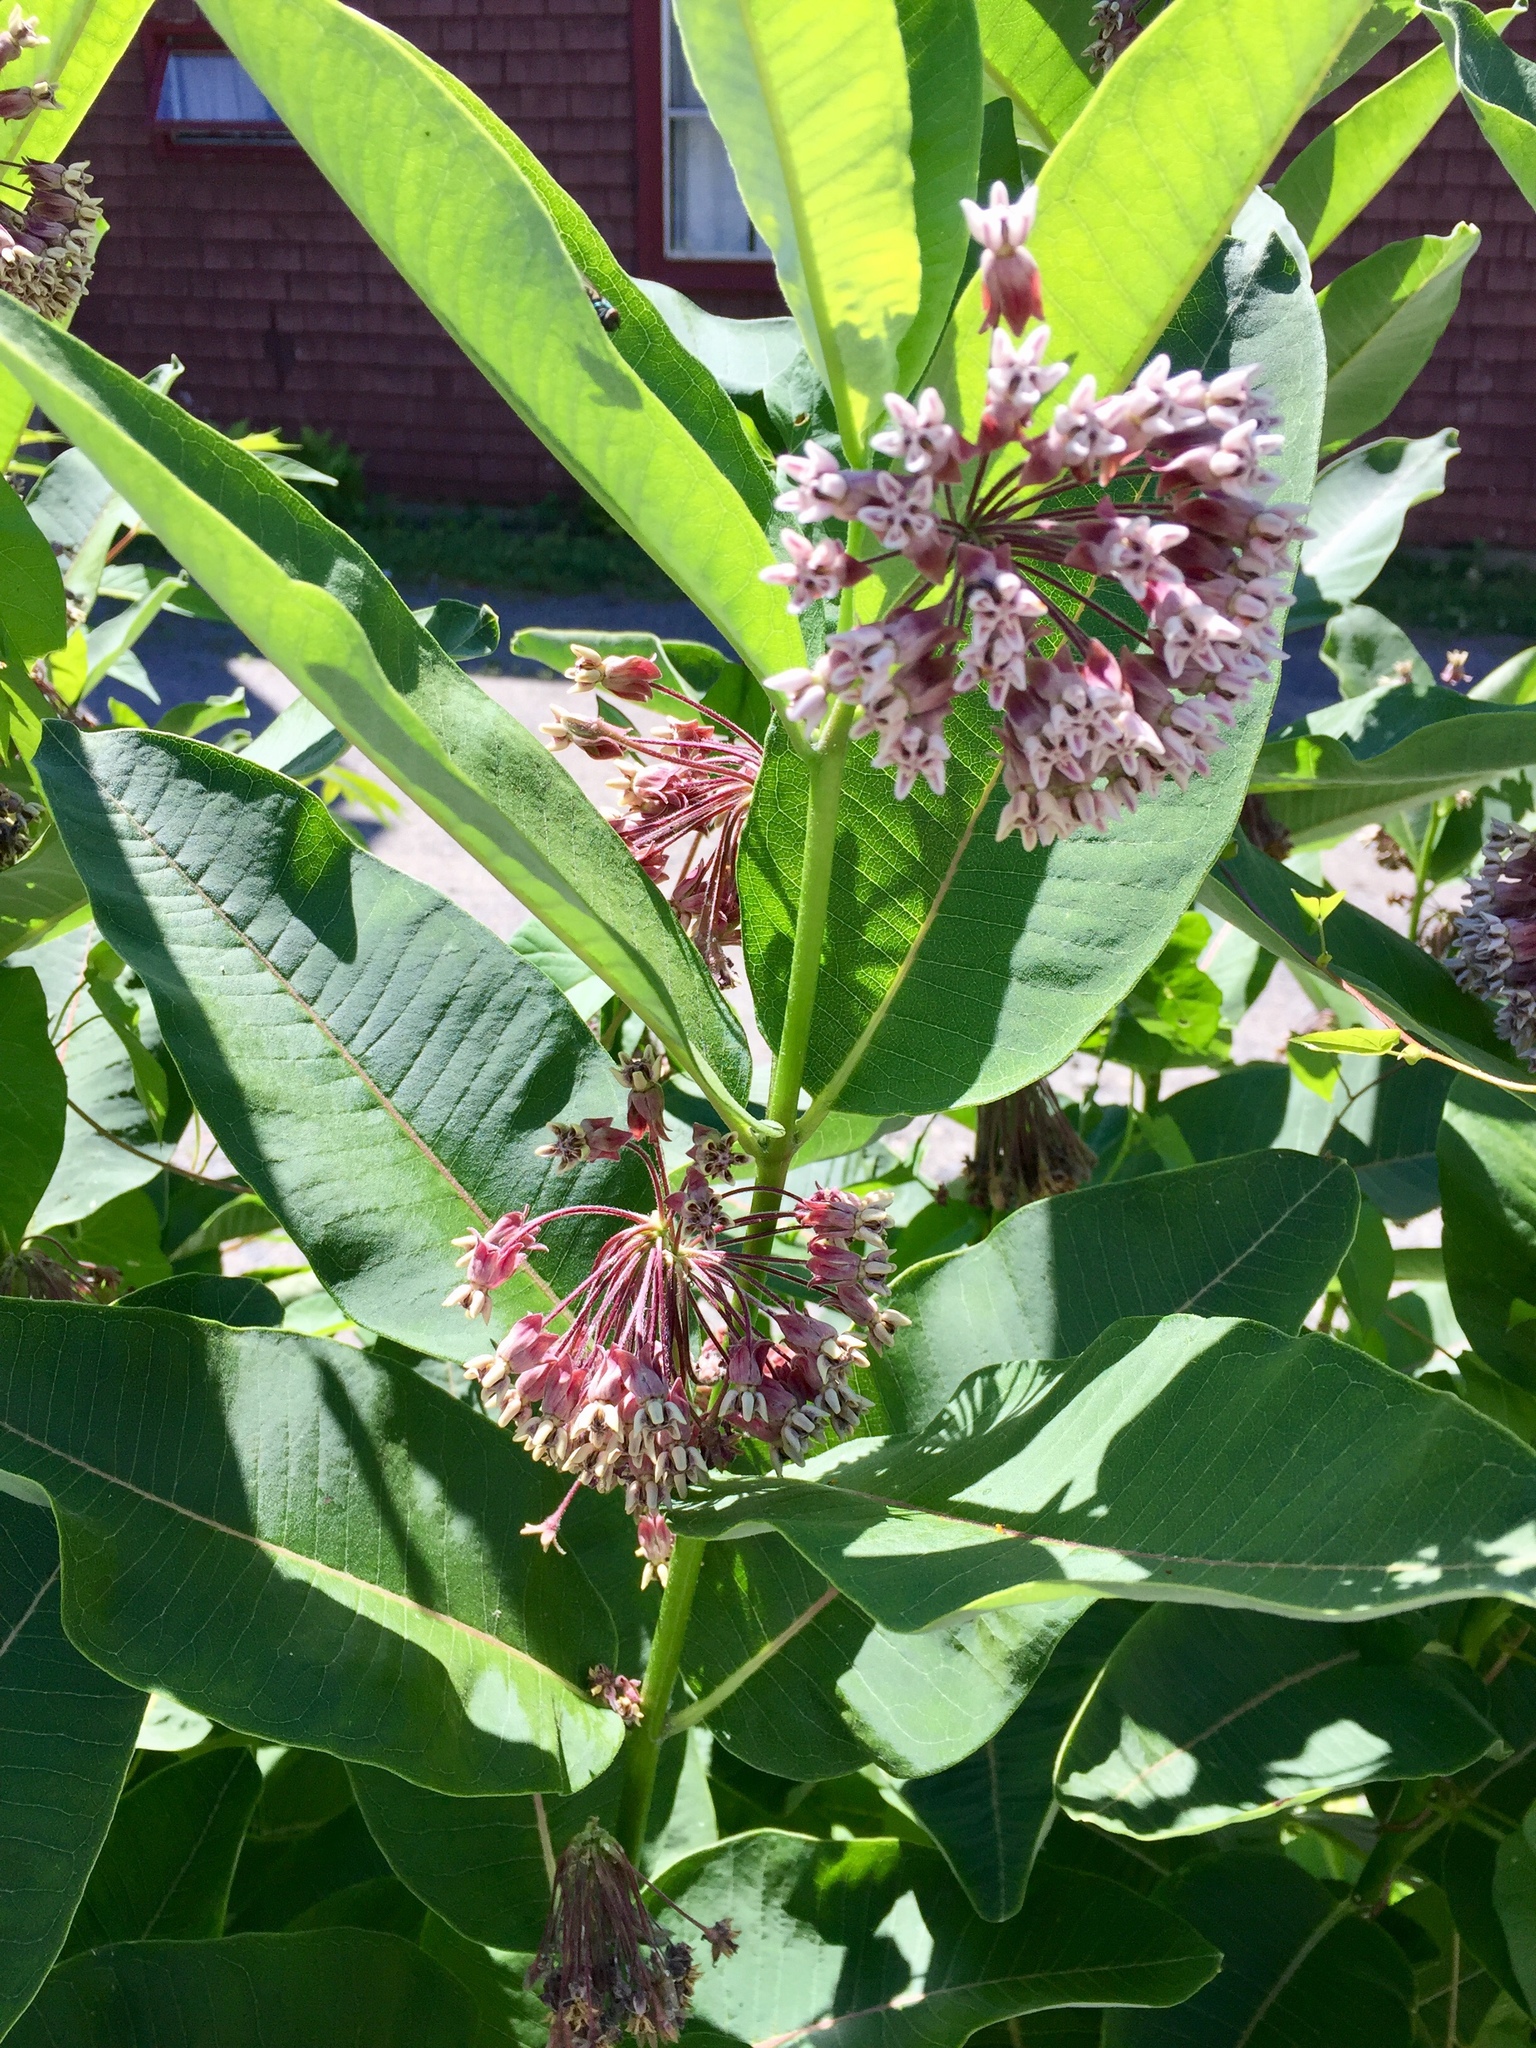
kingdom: Plantae
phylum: Tracheophyta
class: Magnoliopsida
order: Gentianales
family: Apocynaceae
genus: Asclepias
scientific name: Asclepias syriaca
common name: Common milkweed
